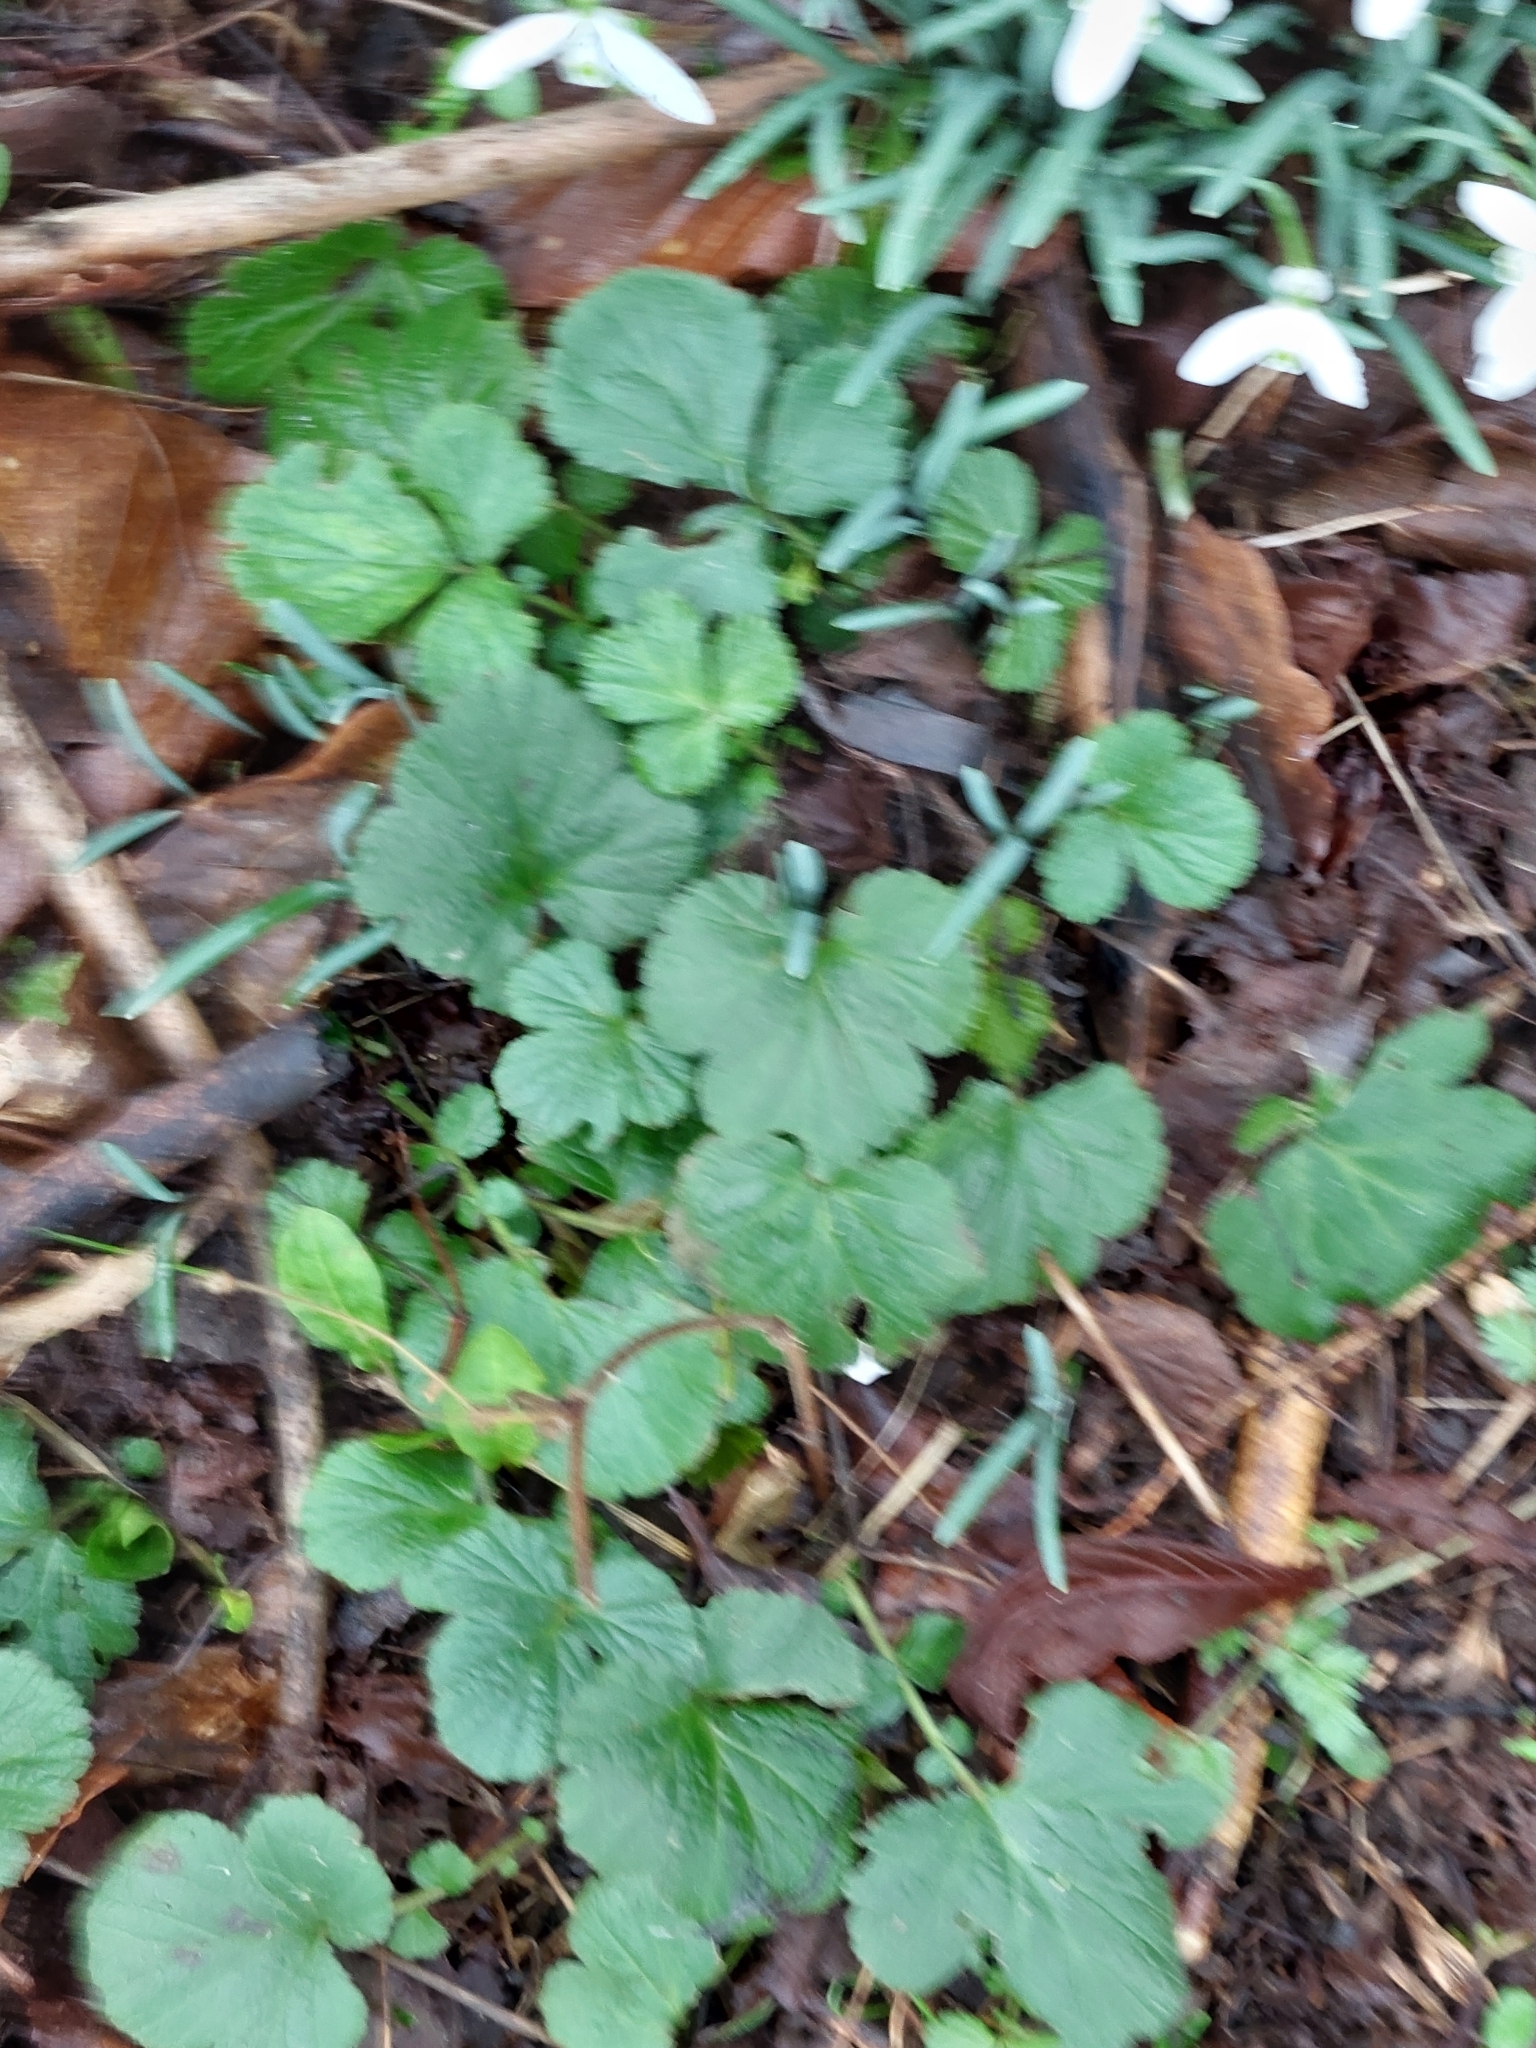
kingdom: Plantae
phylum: Tracheophyta
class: Magnoliopsida
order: Rosales
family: Rosaceae
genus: Geum
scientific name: Geum urbanum
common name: Wood avens
